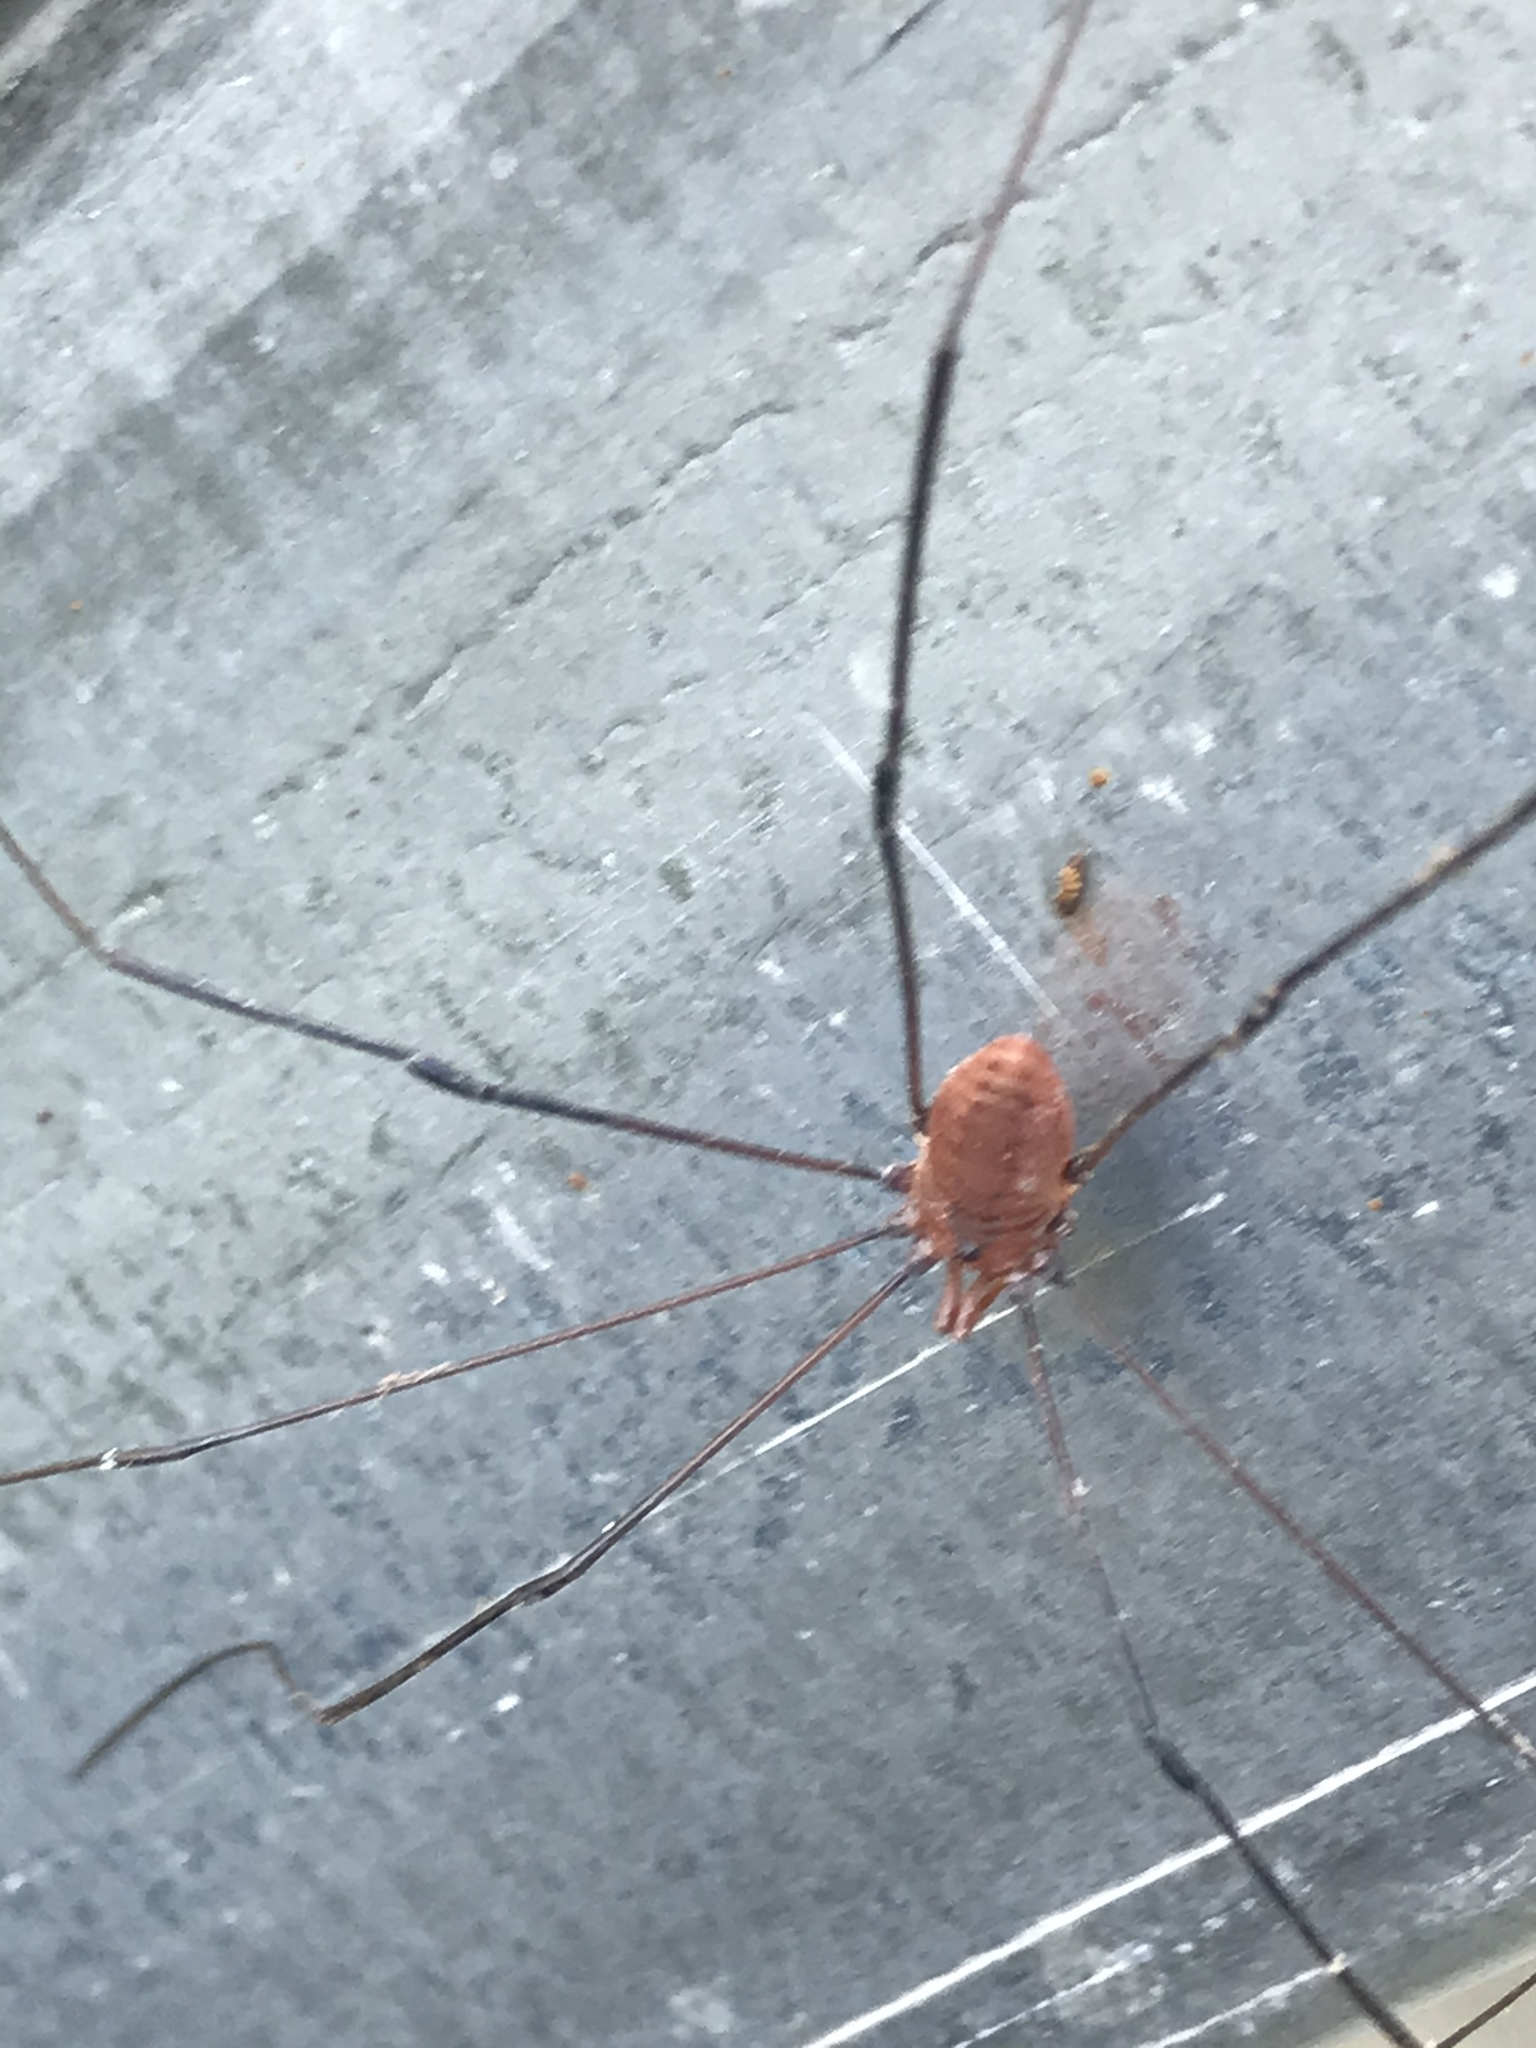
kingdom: Animalia
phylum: Arthropoda
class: Arachnida
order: Opiliones
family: Sclerosomatidae
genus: Leiobunum
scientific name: Leiobunum vittatum
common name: Eastern harvestman
